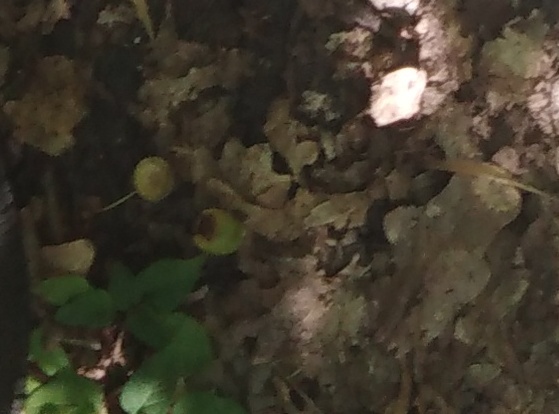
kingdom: Plantae
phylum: Tracheophyta
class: Magnoliopsida
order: Fagales
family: Fagaceae
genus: Quercus
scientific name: Quercus robur
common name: Pedunculate oak
